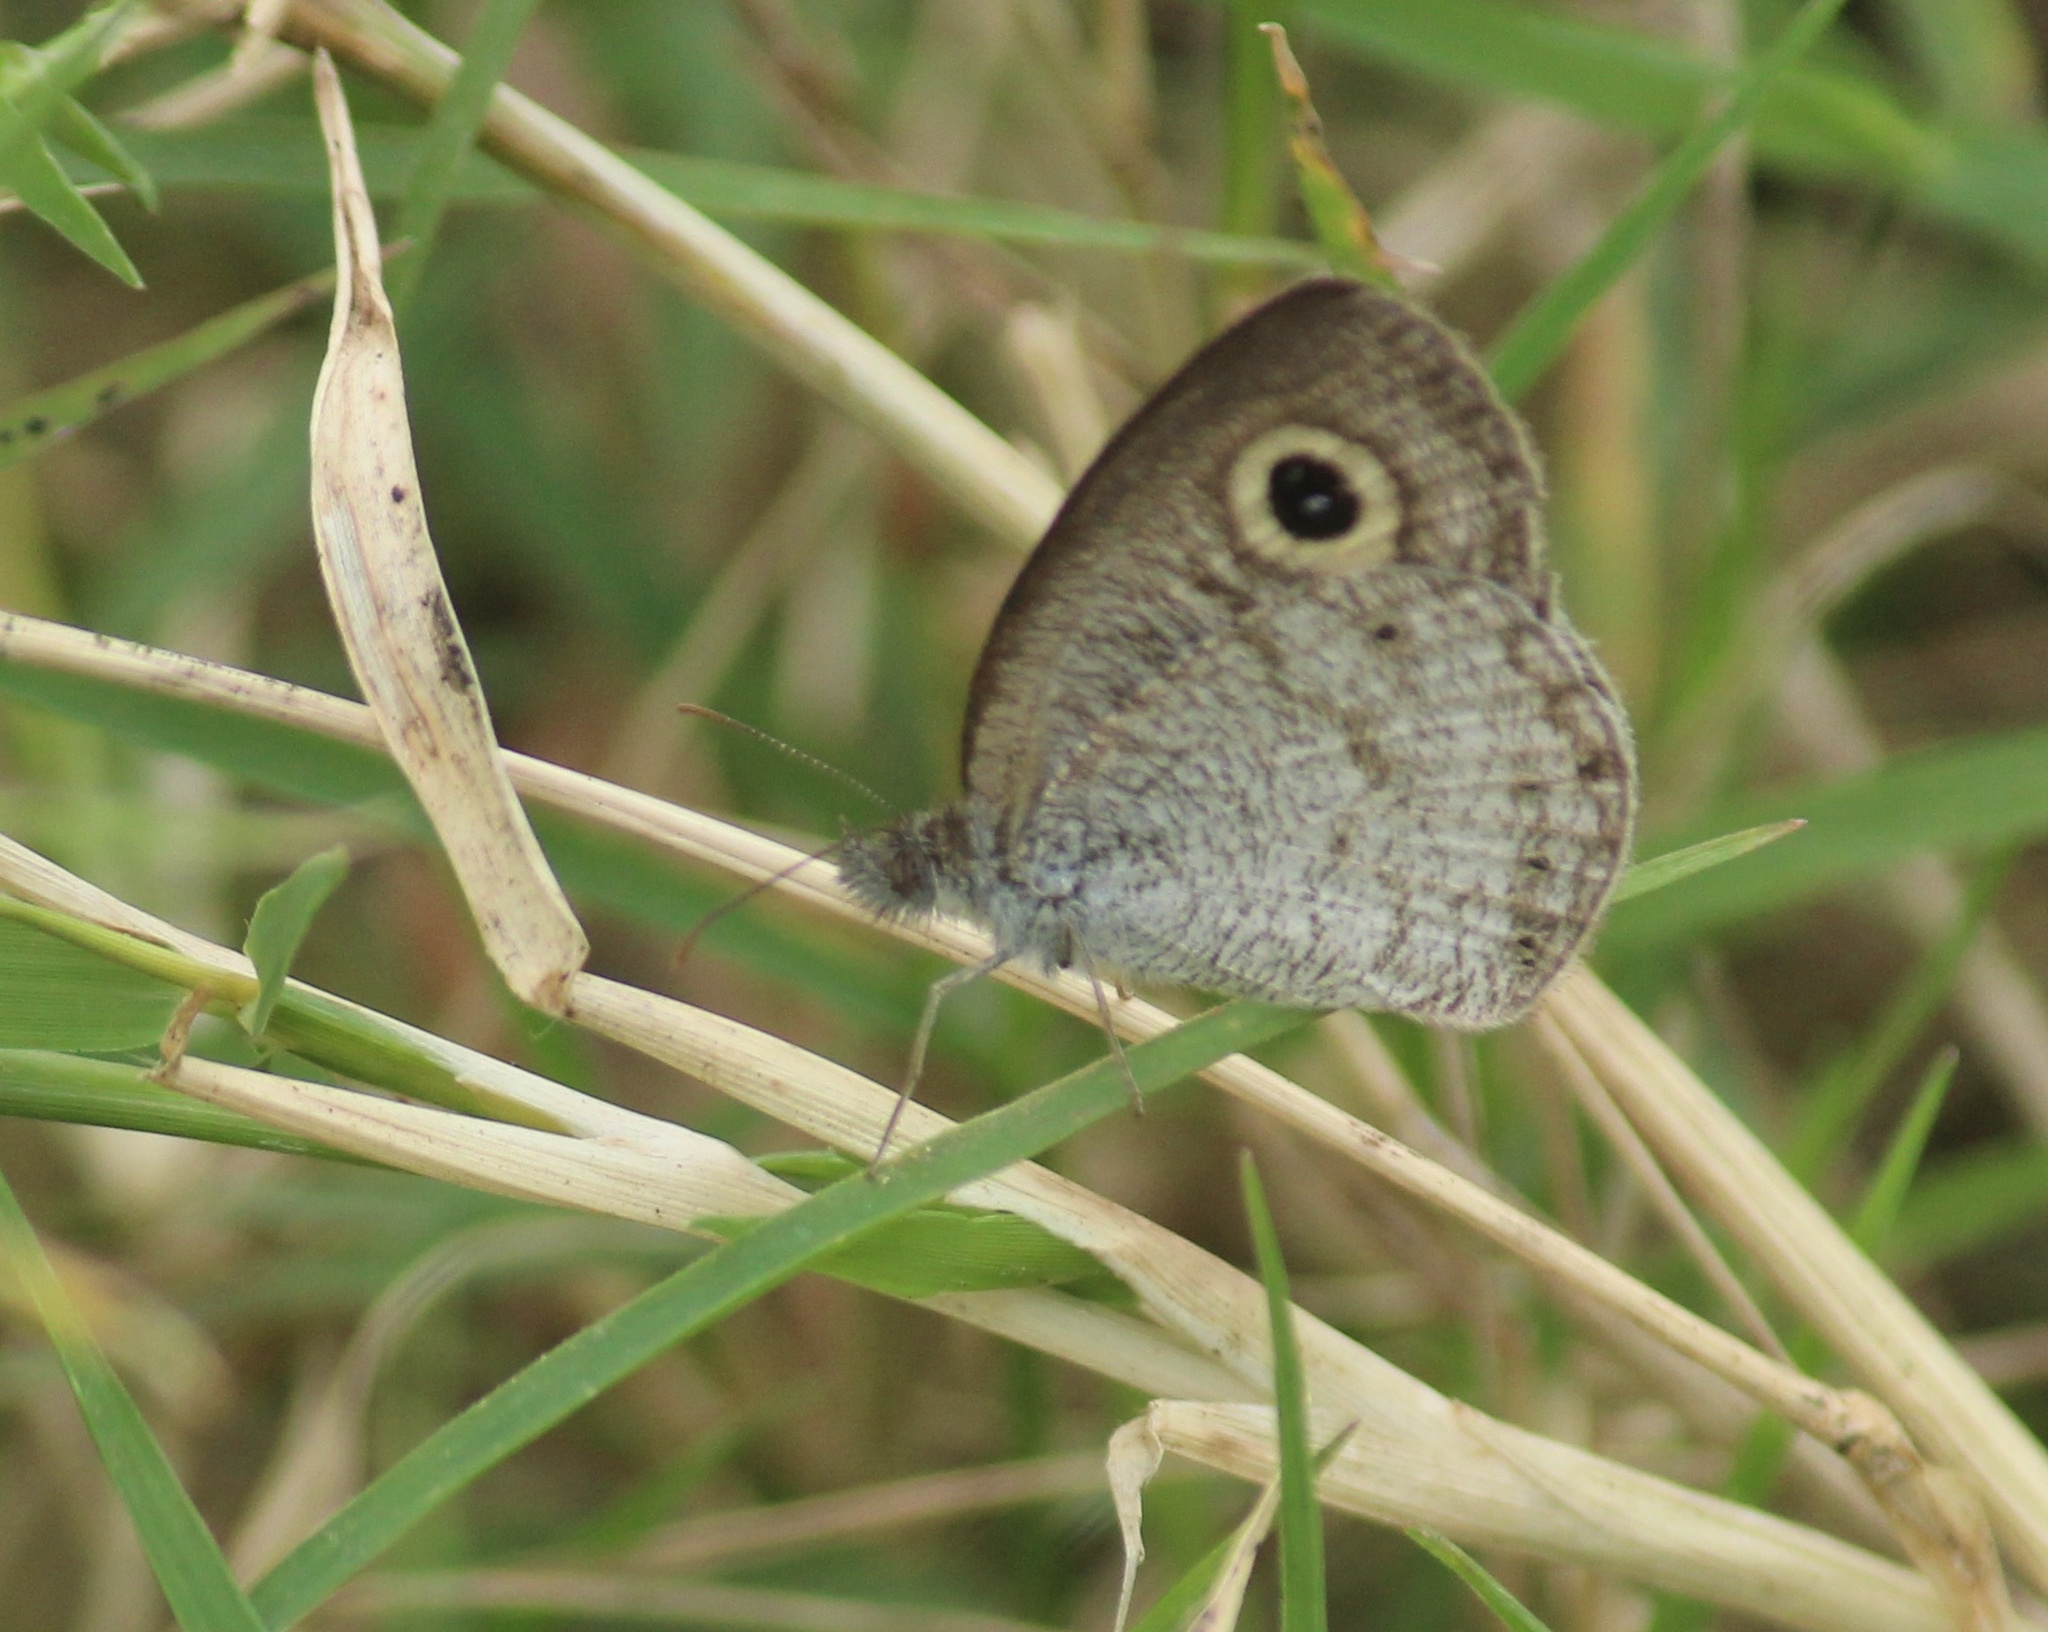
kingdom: Animalia
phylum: Arthropoda
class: Insecta
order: Lepidoptera
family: Nymphalidae
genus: Ypthima
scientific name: Ypthima huebneri
